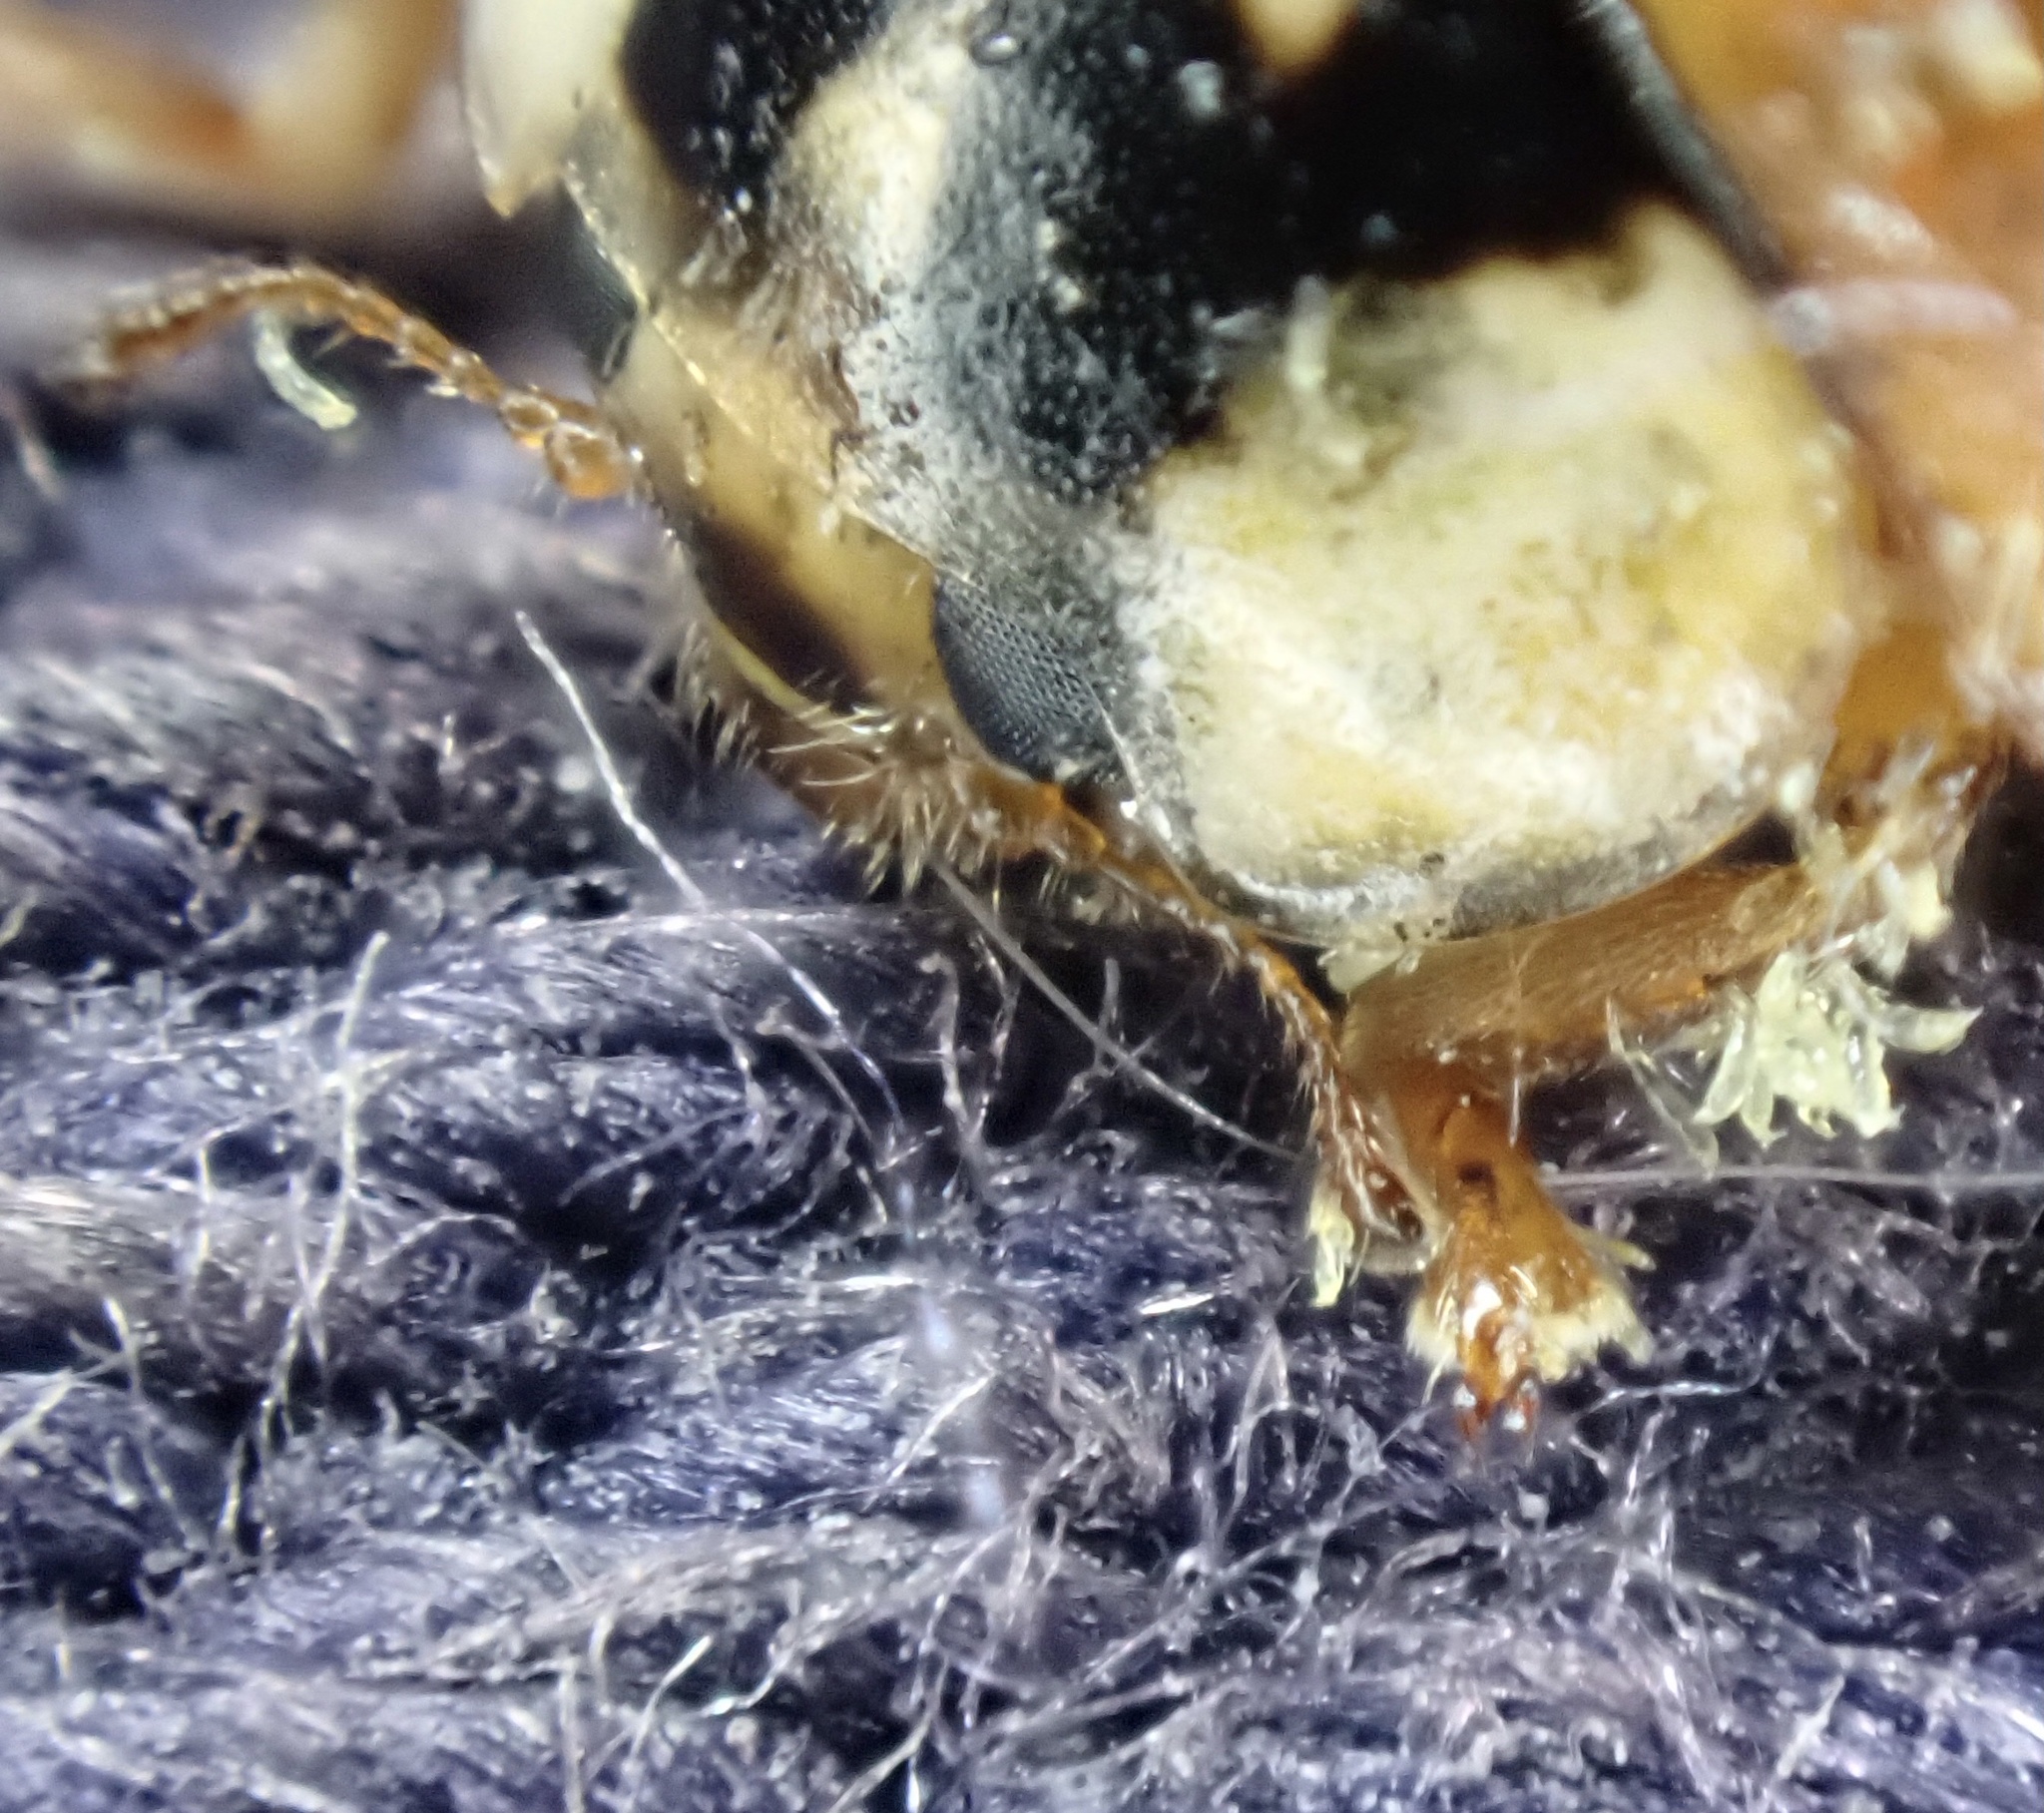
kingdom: Animalia
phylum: Arthropoda
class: Insecta
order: Coleoptera
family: Coccinellidae
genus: Harmonia
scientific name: Harmonia axyridis
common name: Harlequin ladybird
